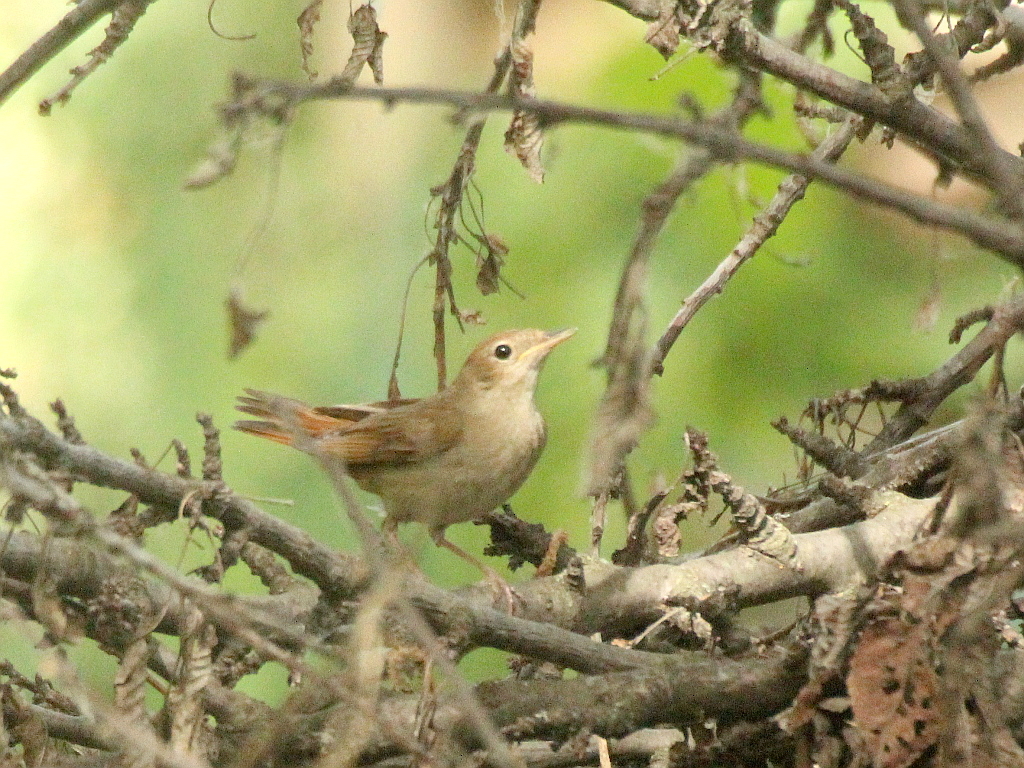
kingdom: Animalia
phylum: Chordata
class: Aves
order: Passeriformes
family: Muscicapidae
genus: Luscinia
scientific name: Luscinia megarhynchos
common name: Common nightingale
